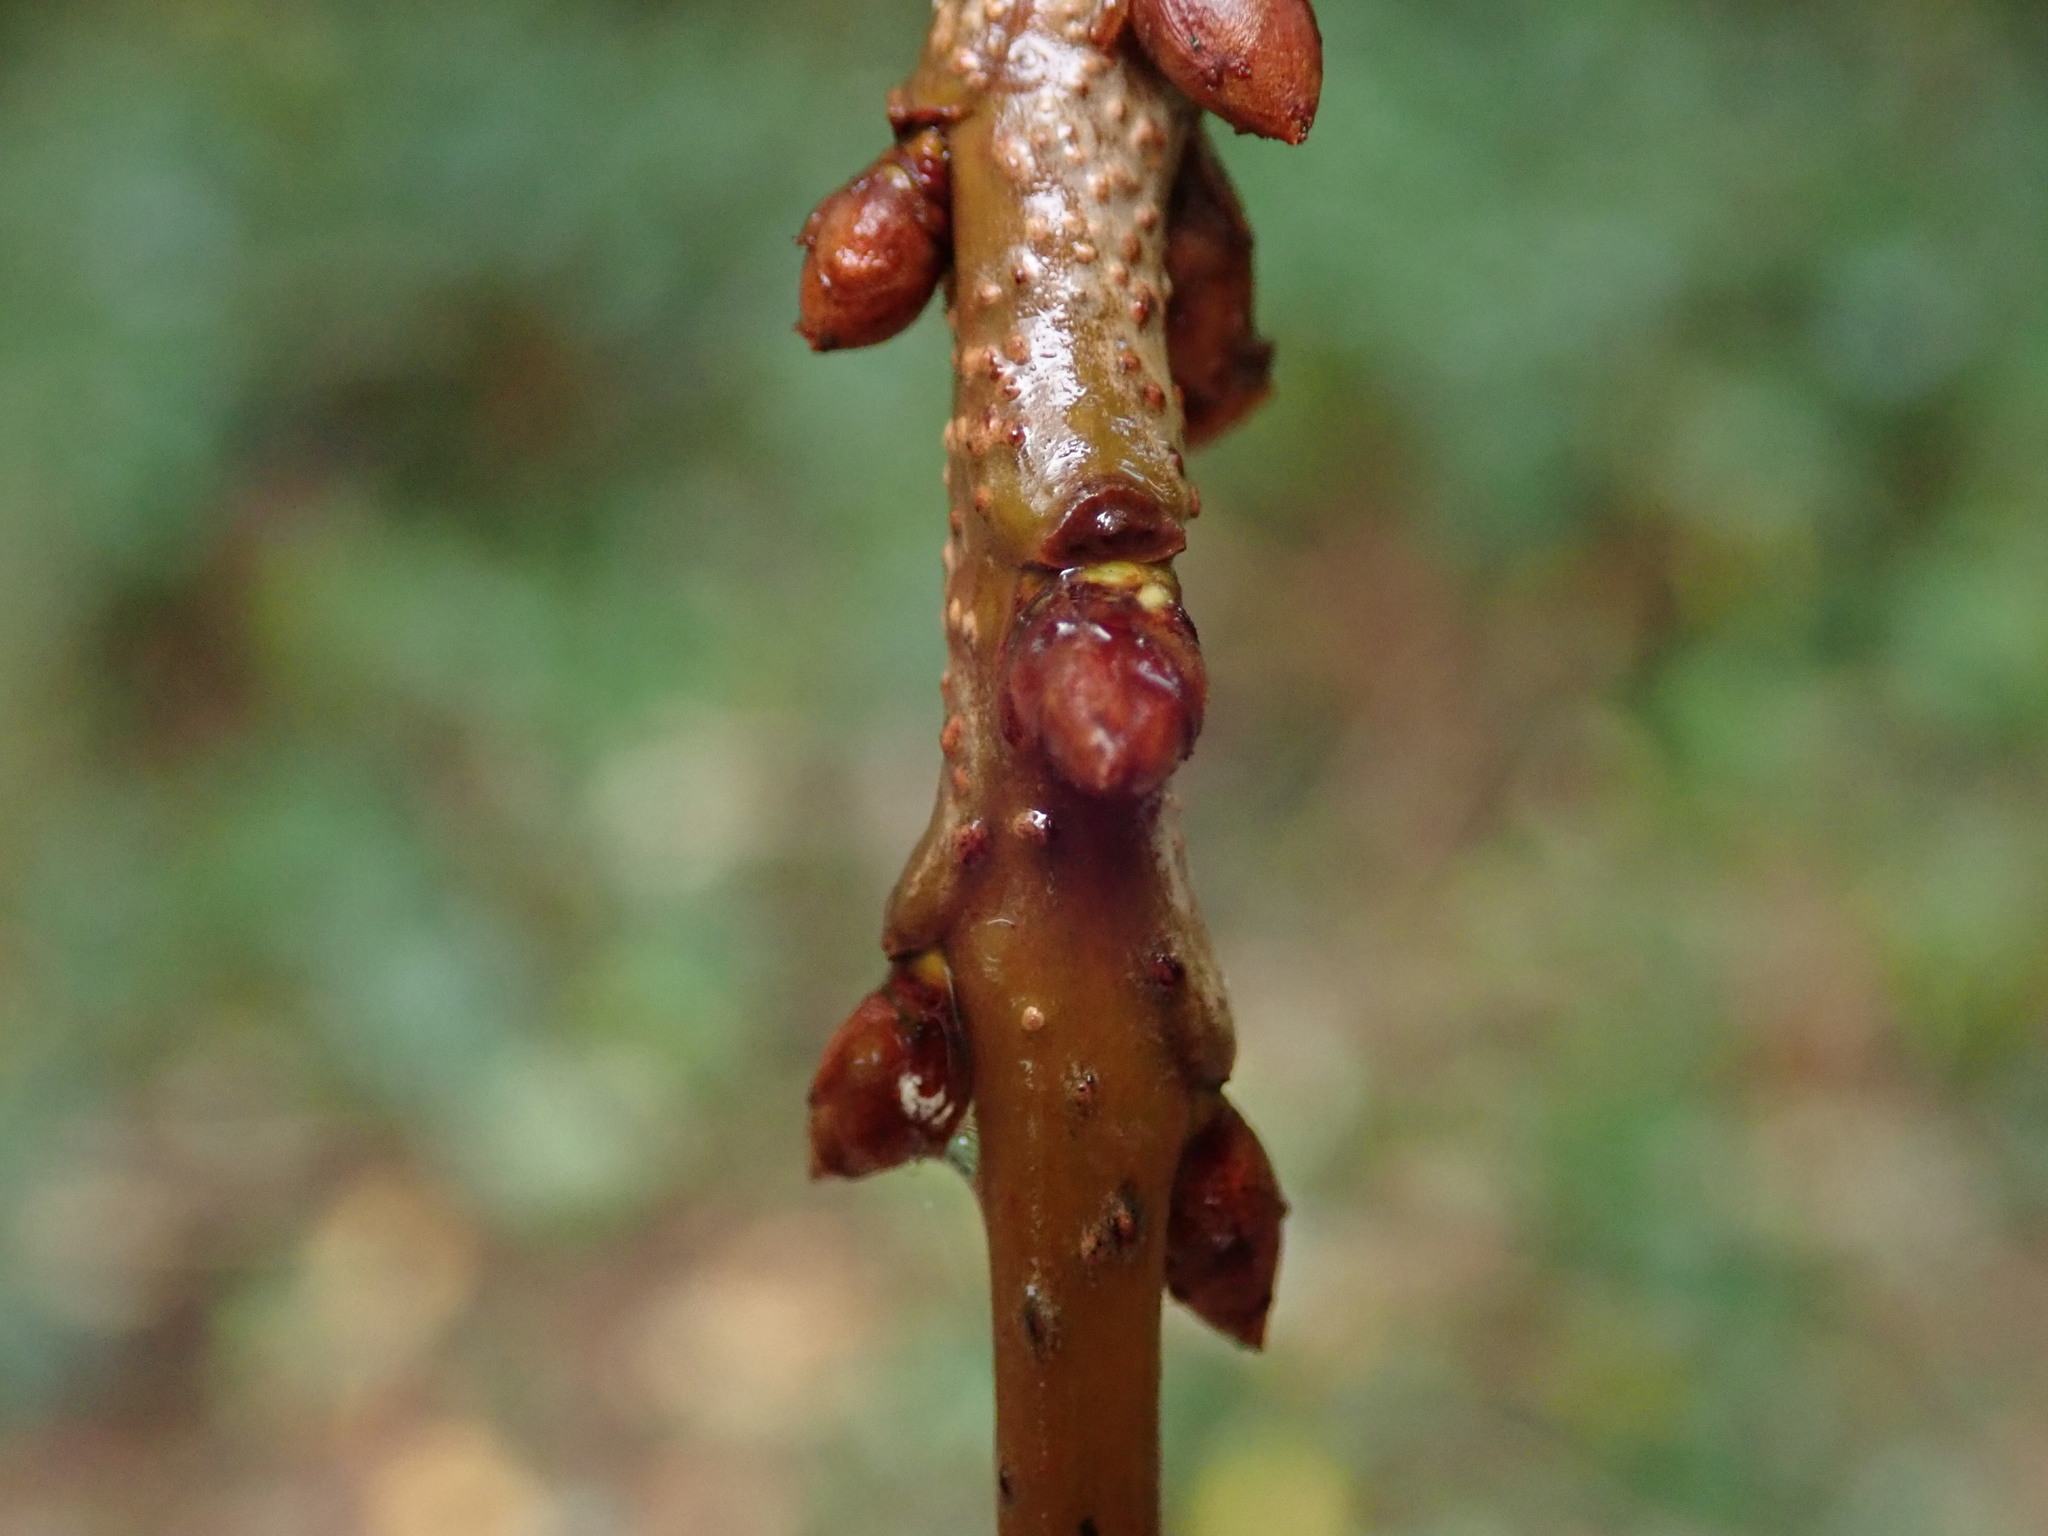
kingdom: Plantae
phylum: Tracheophyta
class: Magnoliopsida
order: Rosales
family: Rosaceae
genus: Prunus
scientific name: Prunus avium
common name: Sweet cherry
